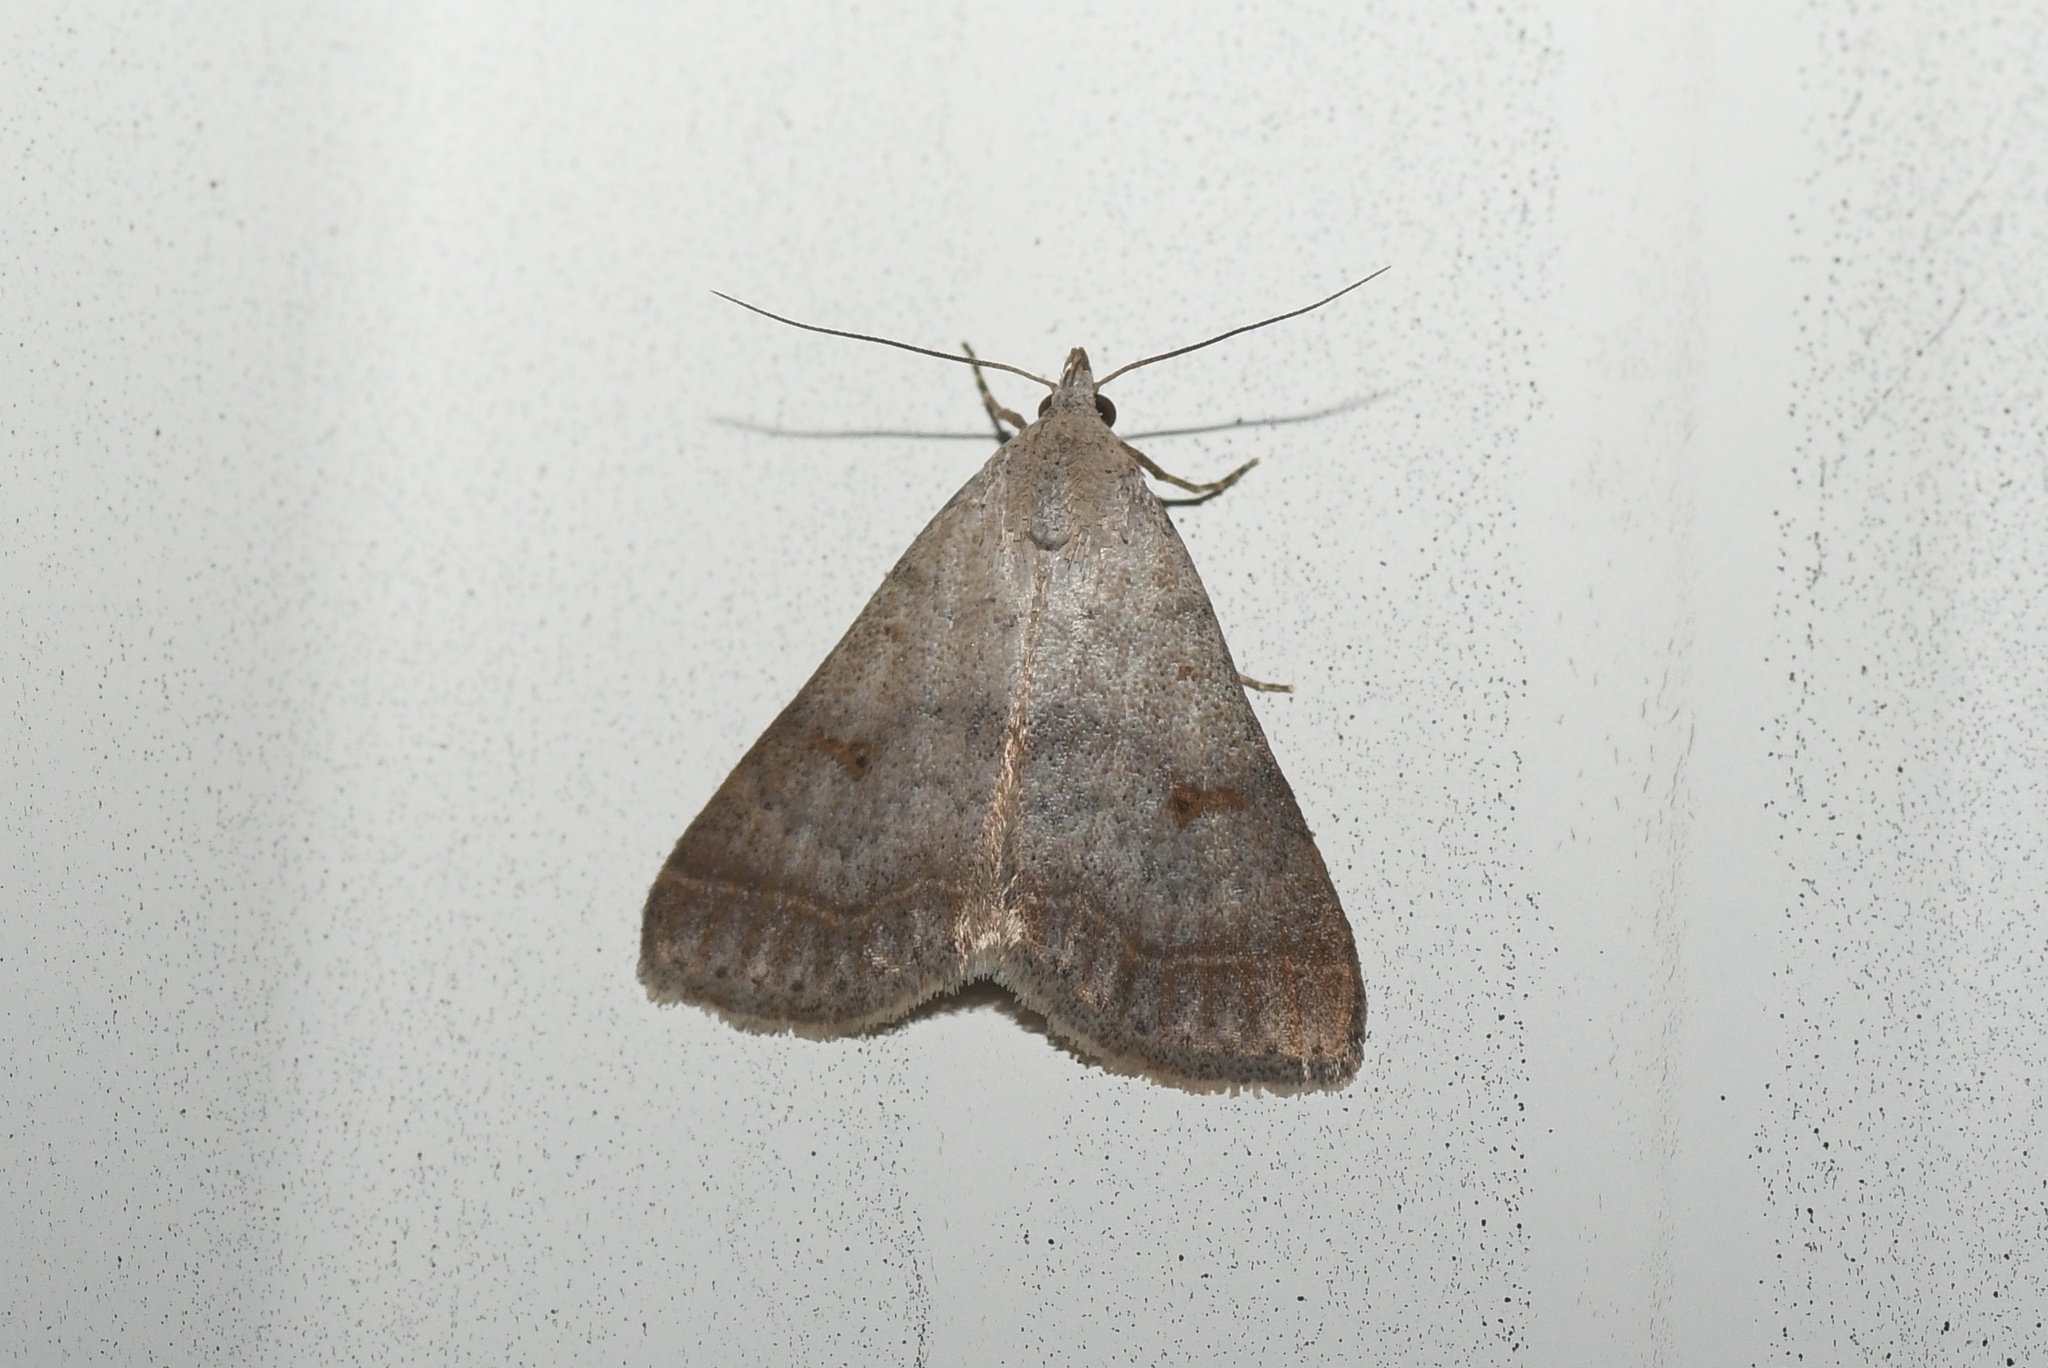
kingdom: Animalia
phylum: Arthropoda
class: Insecta
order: Lepidoptera
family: Erebidae
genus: Bleptina
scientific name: Bleptina caradrinalis
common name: Bent-winged owlet
